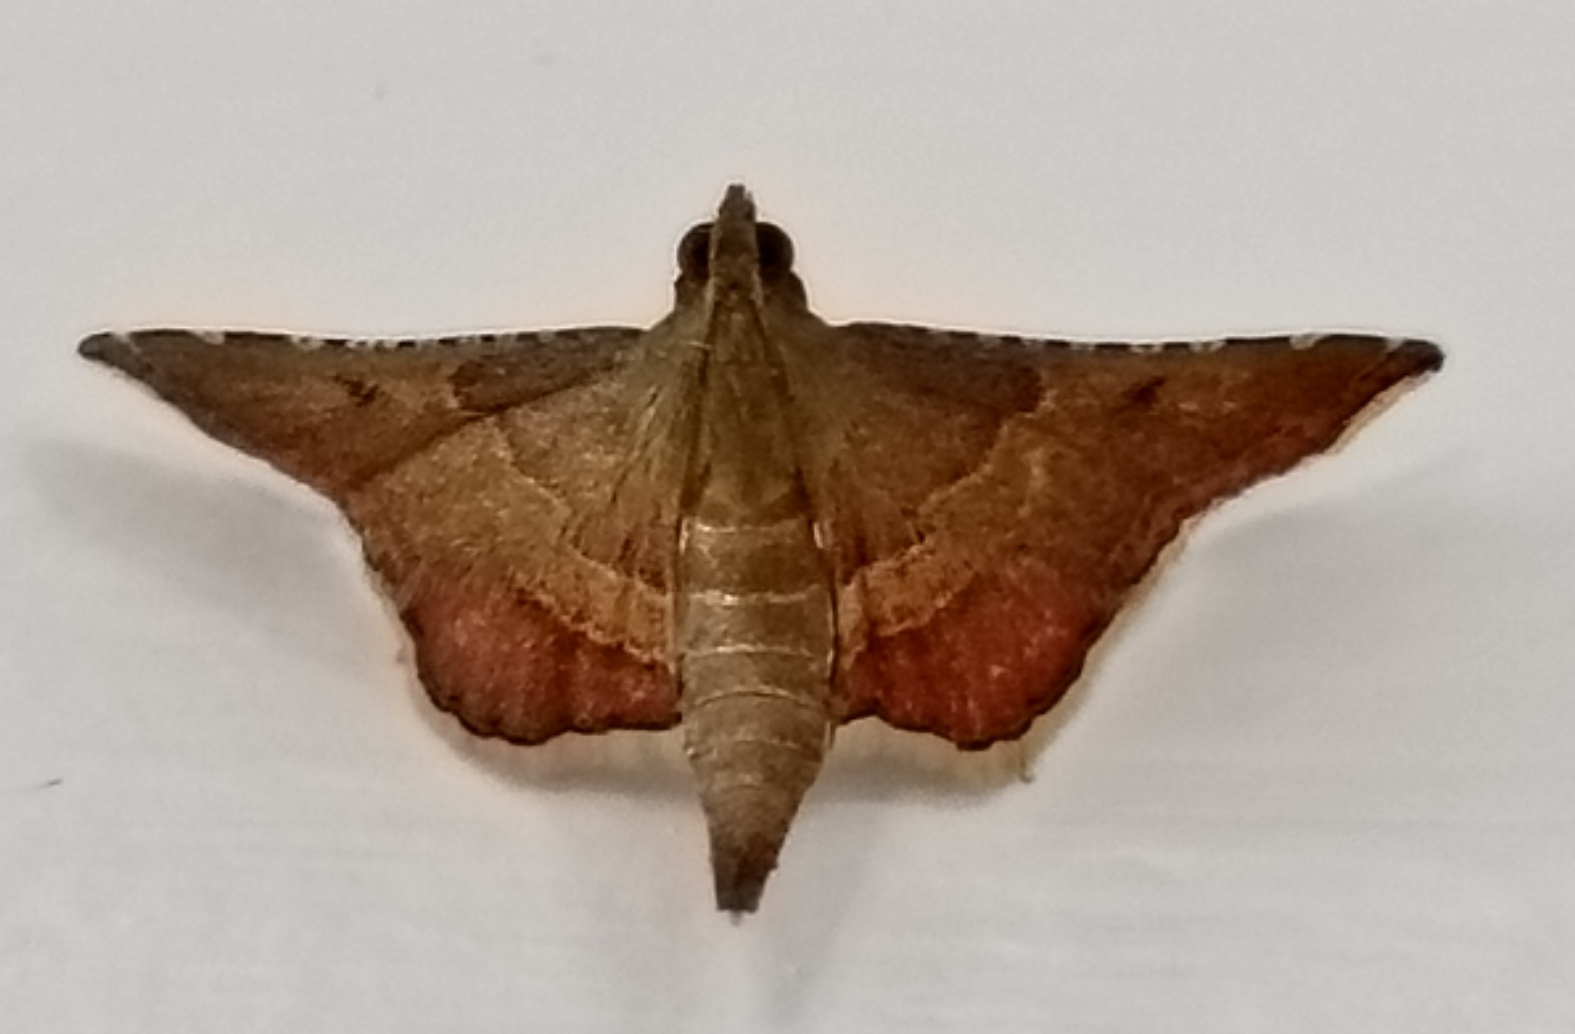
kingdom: Animalia
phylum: Arthropoda
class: Insecta
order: Lepidoptera
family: Pyralidae
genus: Endotricha
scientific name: Endotricha flammealis
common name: Rosy tabby
